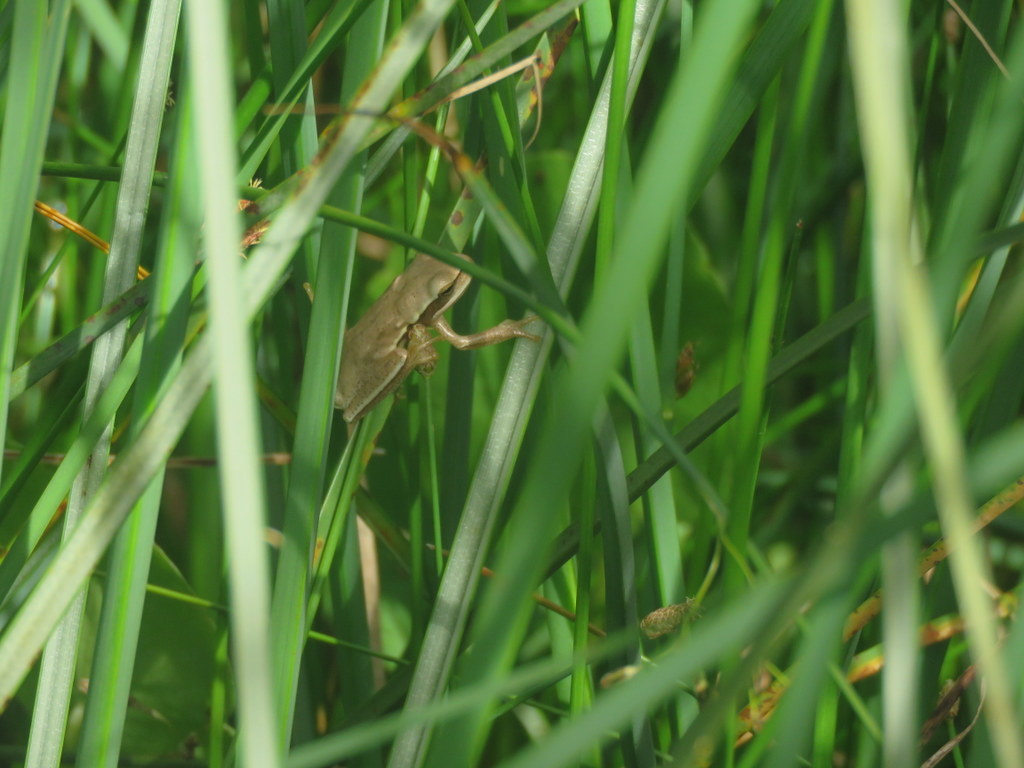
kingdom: Animalia
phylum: Chordata
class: Amphibia
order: Anura
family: Hylidae
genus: Boana
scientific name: Boana pulchella
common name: Montevideo treefrog
